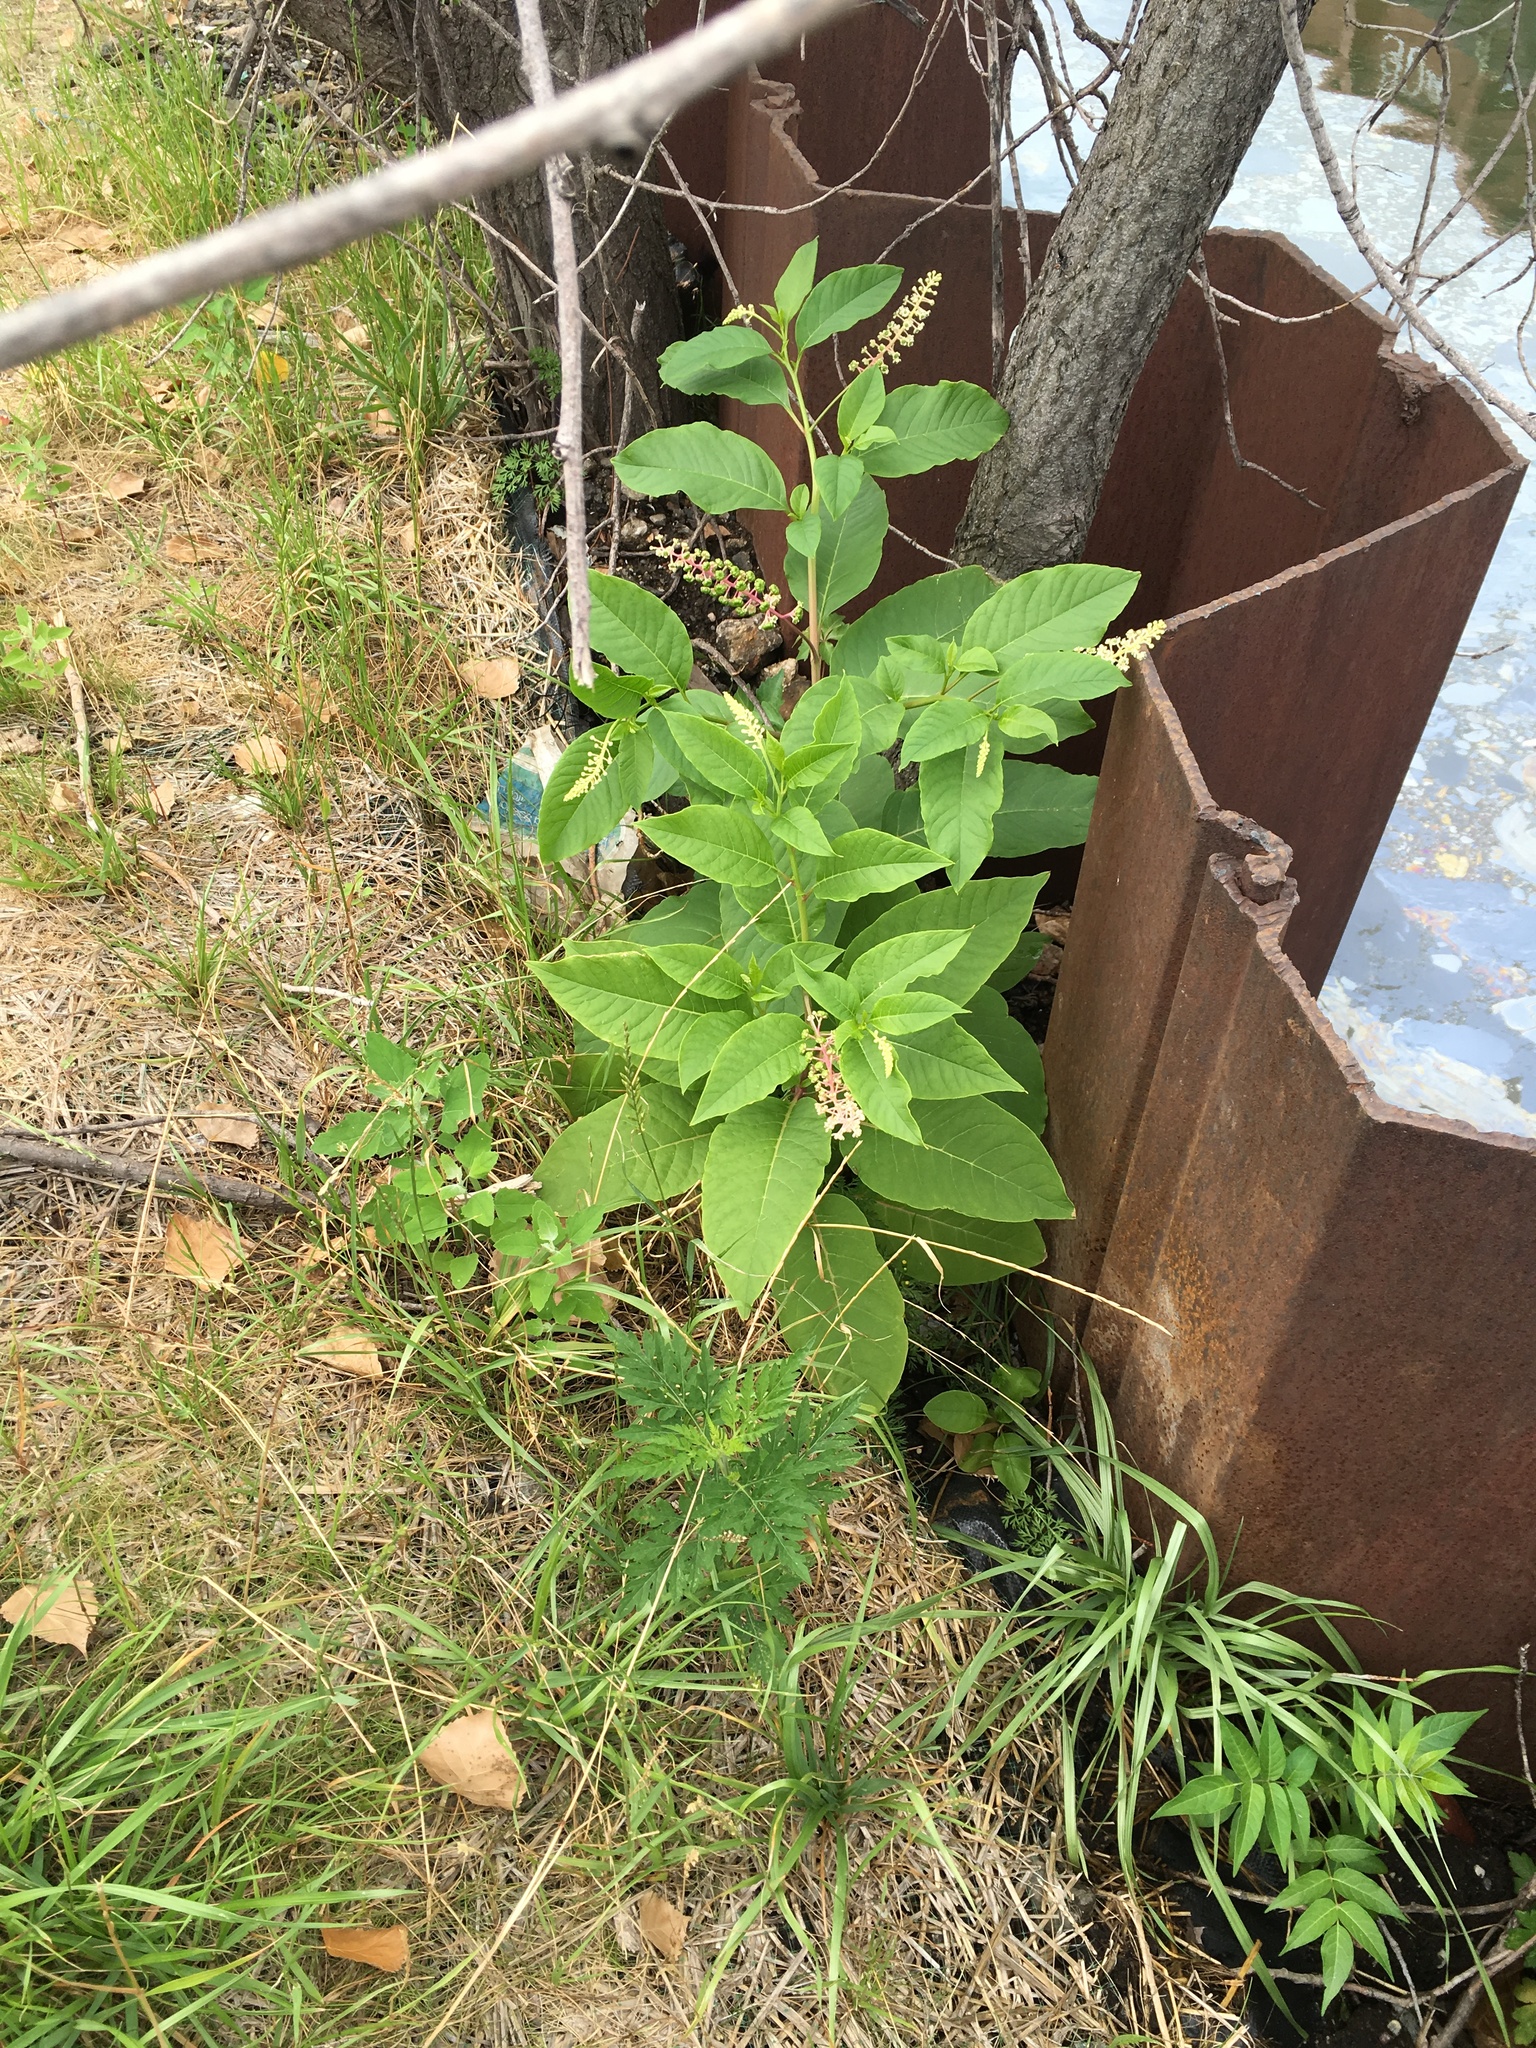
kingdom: Plantae
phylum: Tracheophyta
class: Magnoliopsida
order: Caryophyllales
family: Phytolaccaceae
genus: Phytolacca
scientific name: Phytolacca americana
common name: American pokeweed
